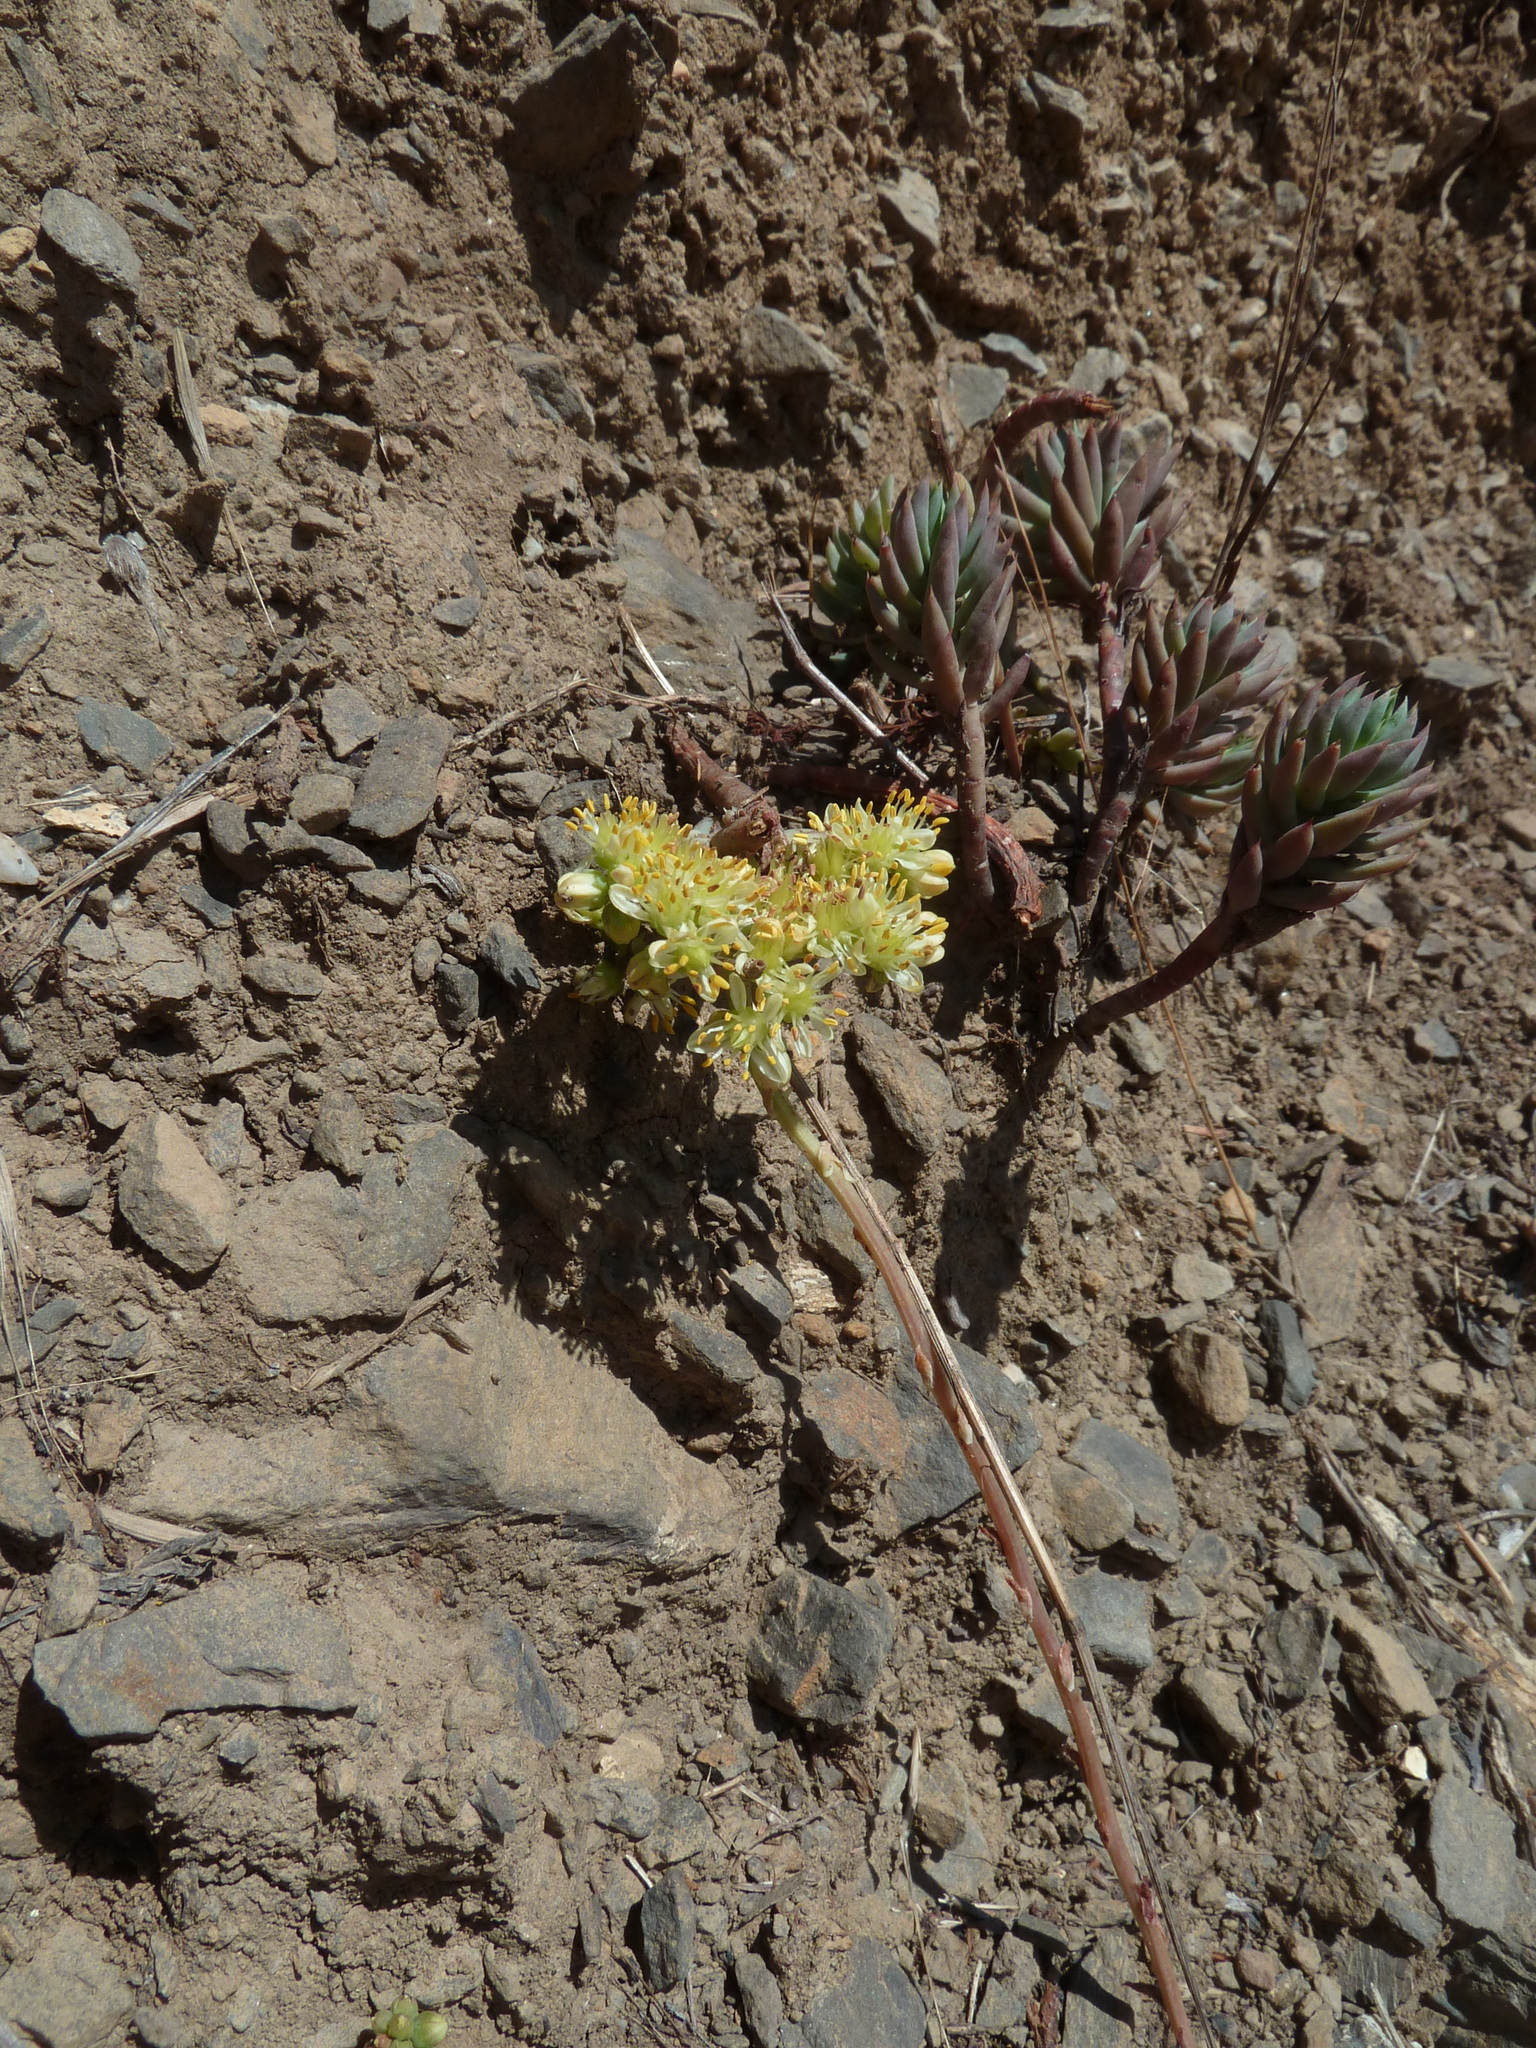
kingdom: Plantae
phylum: Tracheophyta
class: Magnoliopsida
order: Saxifragales
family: Crassulaceae
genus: Petrosedum
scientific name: Petrosedum sediforme
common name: Pale stonecrop
